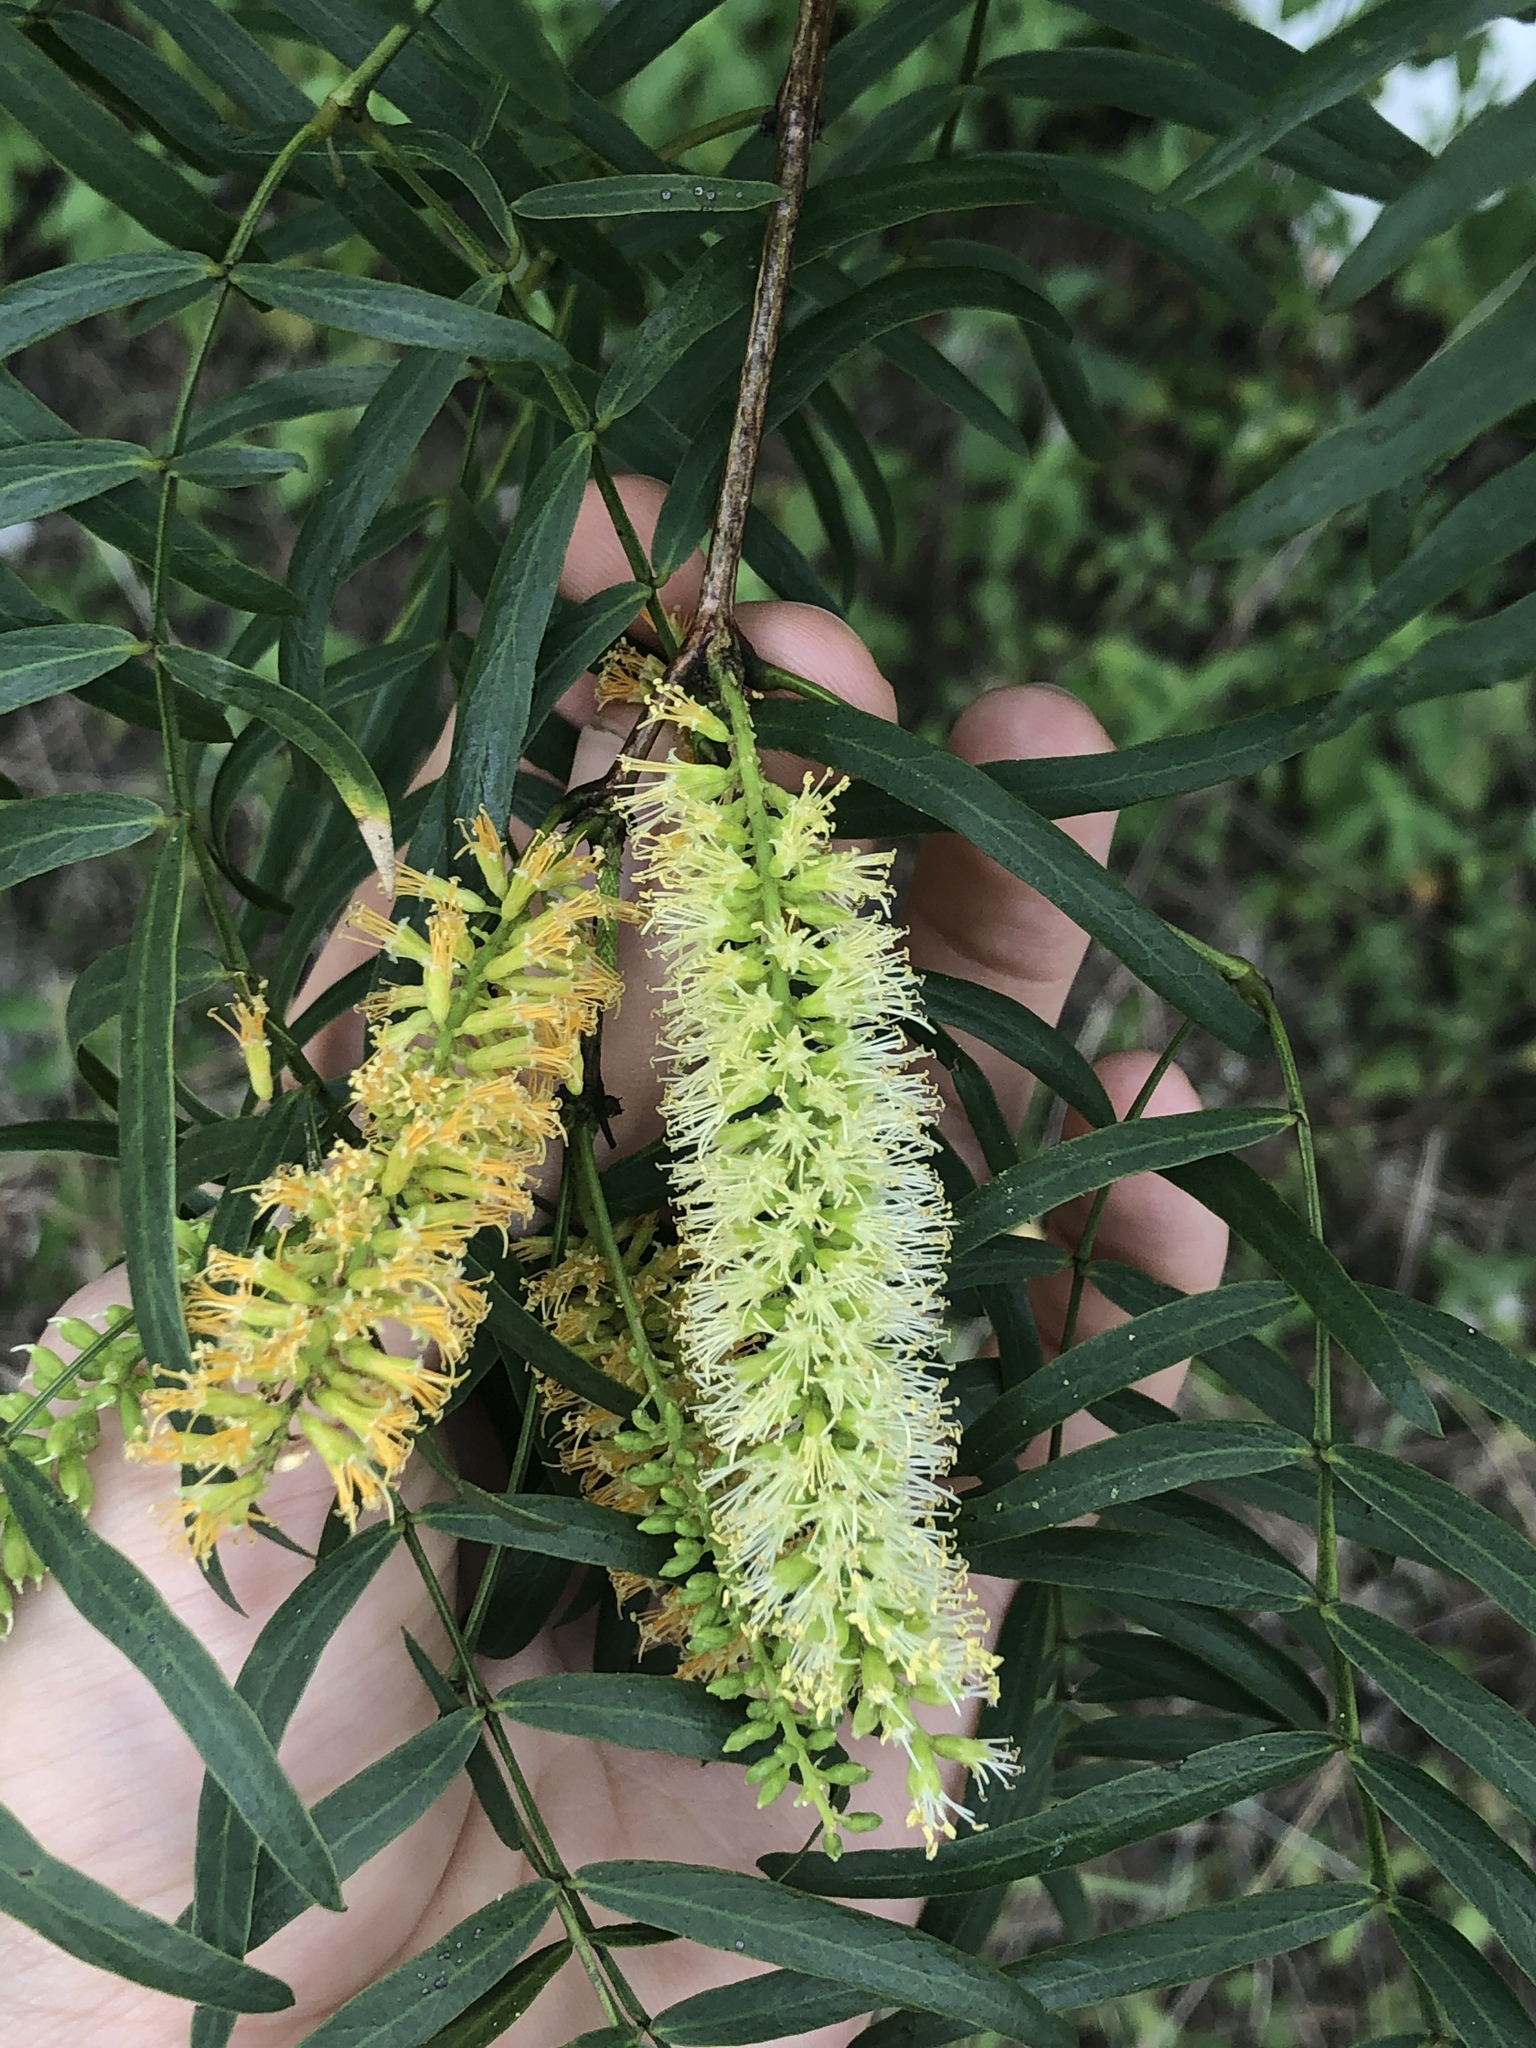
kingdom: Plantae
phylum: Tracheophyta
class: Magnoliopsida
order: Fabales
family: Fabaceae
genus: Prosopis
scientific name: Prosopis glandulosa
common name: Honey mesquite
